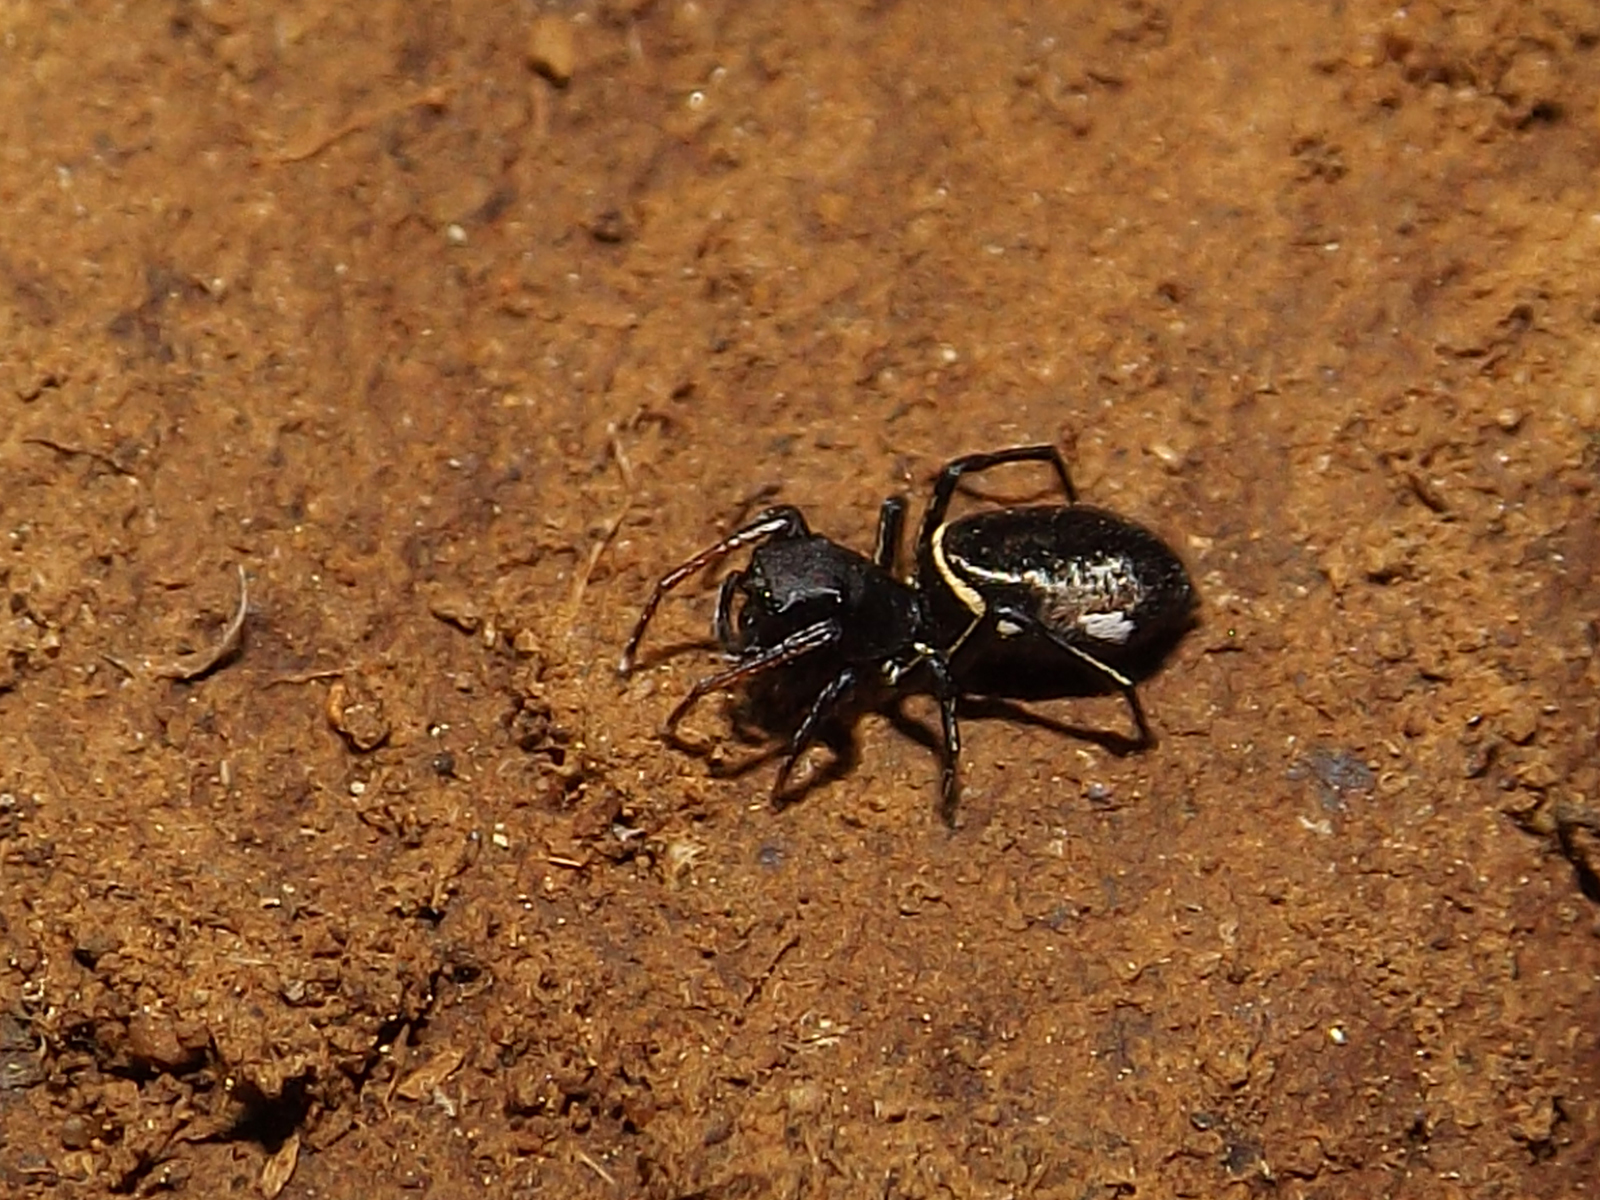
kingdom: Animalia
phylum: Arthropoda
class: Arachnida
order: Araneae
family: Salticidae
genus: Atomosphyrus
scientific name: Atomosphyrus tristiculus
